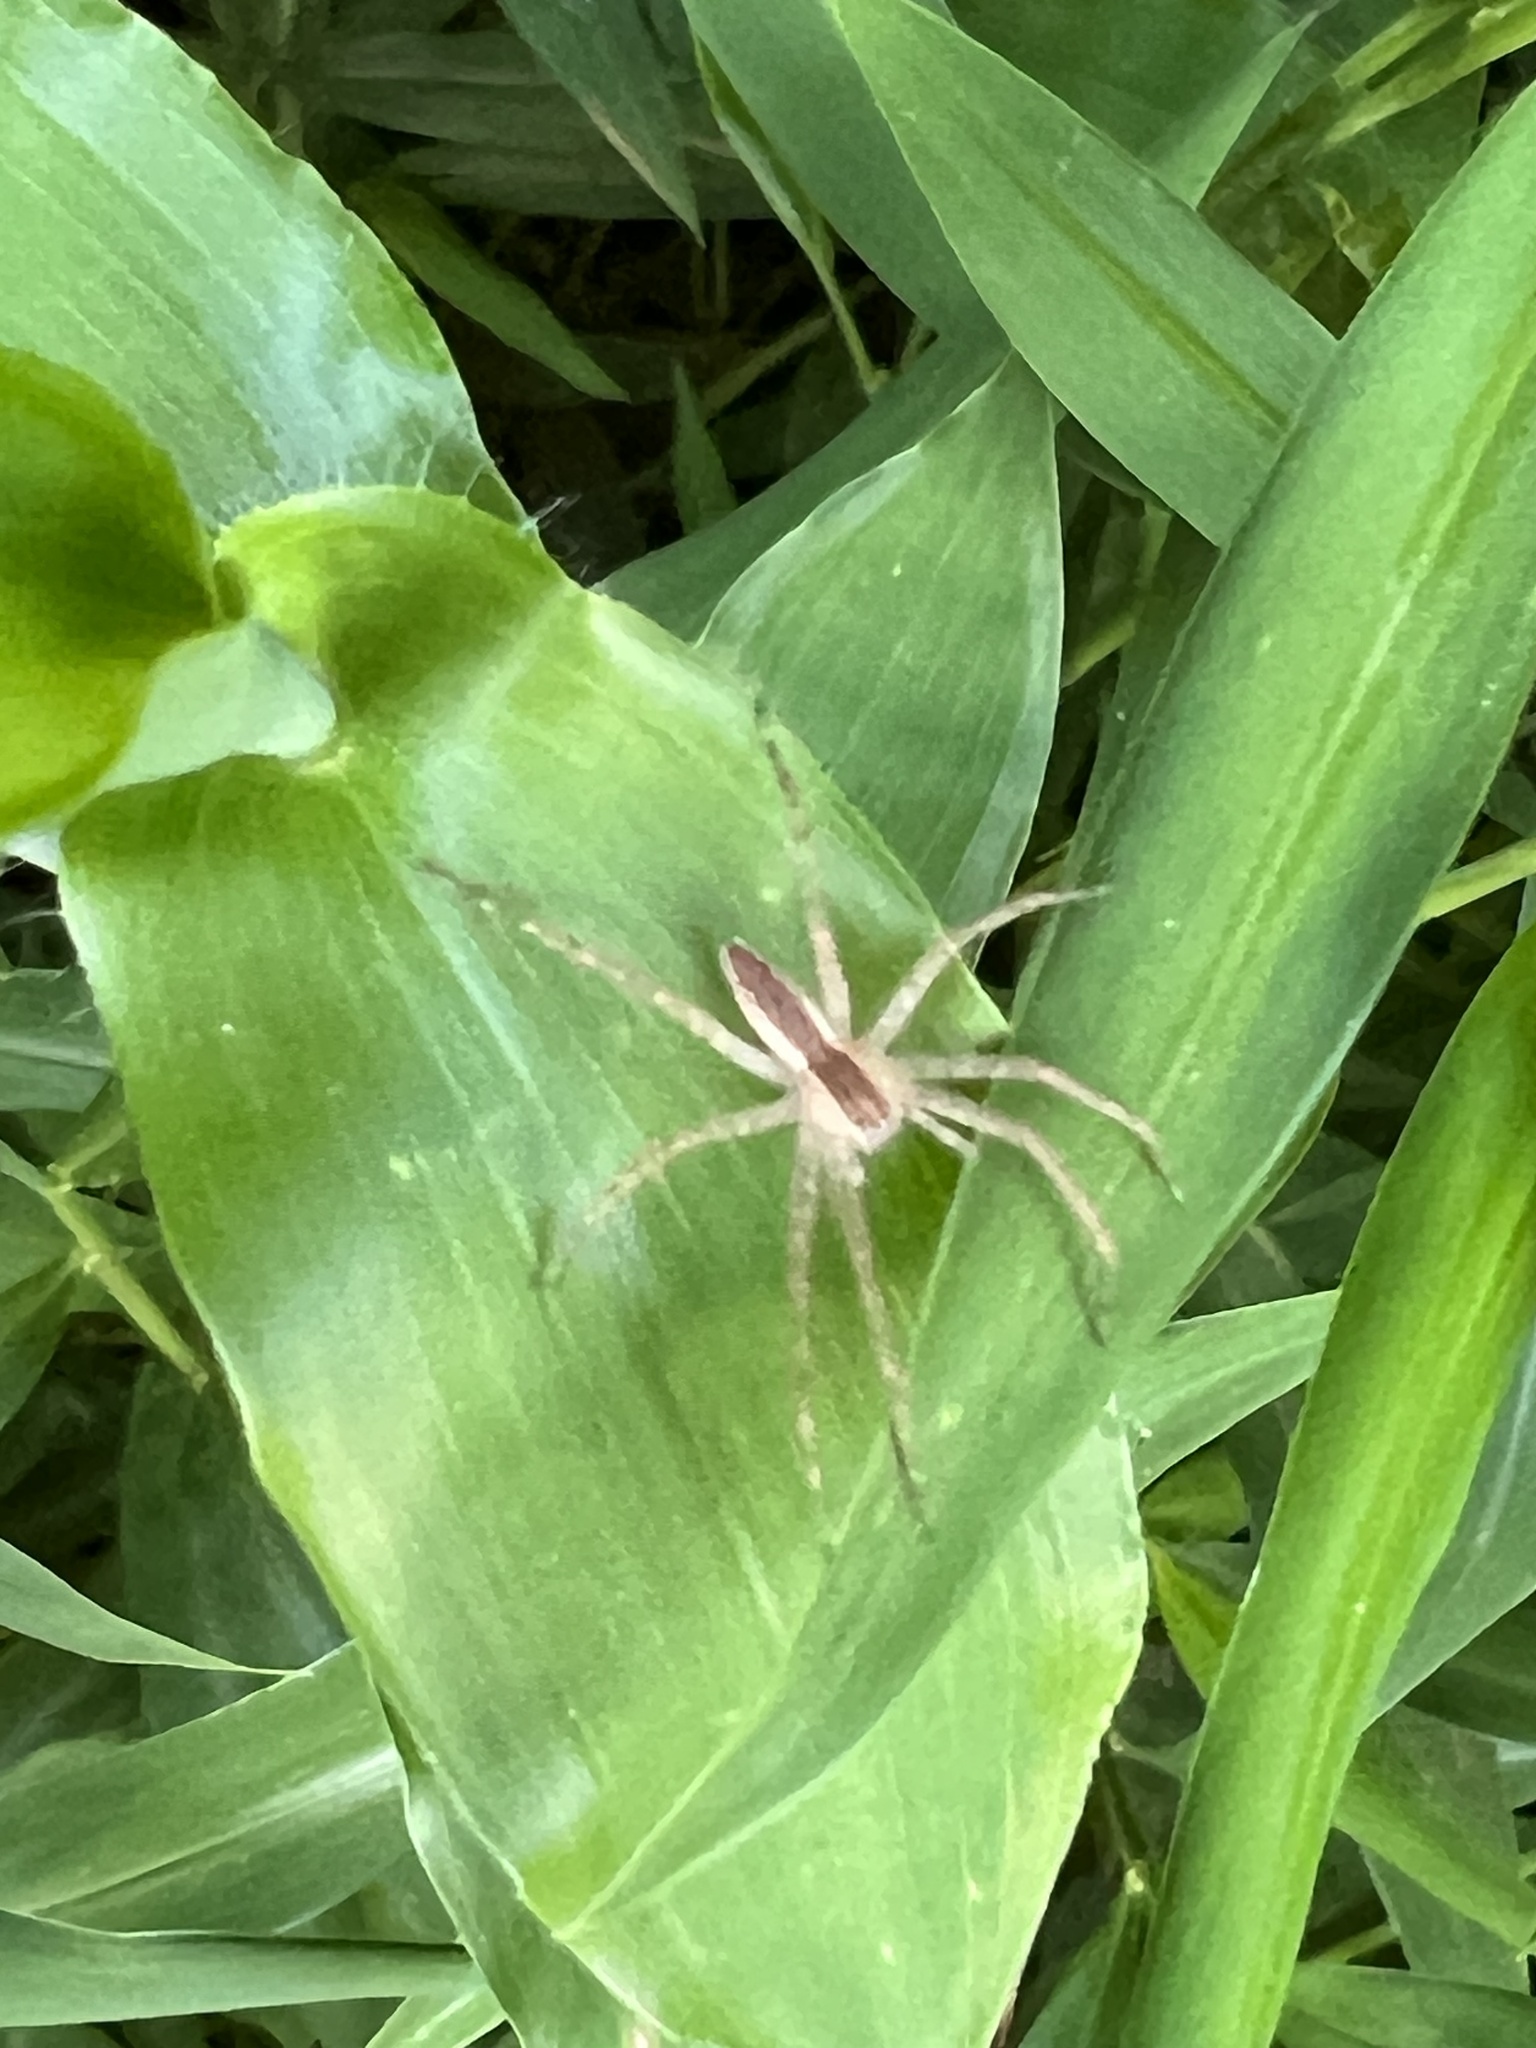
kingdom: Animalia
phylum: Arthropoda
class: Arachnida
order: Araneae
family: Pisauridae
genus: Pisaurina
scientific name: Pisaurina mira
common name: American nursery web spider
